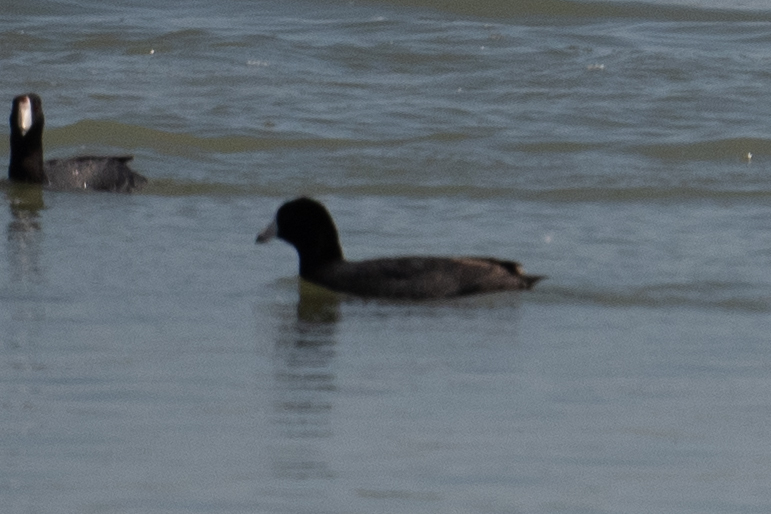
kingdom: Animalia
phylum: Chordata
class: Aves
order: Gruiformes
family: Rallidae
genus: Fulica
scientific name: Fulica americana
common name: American coot
